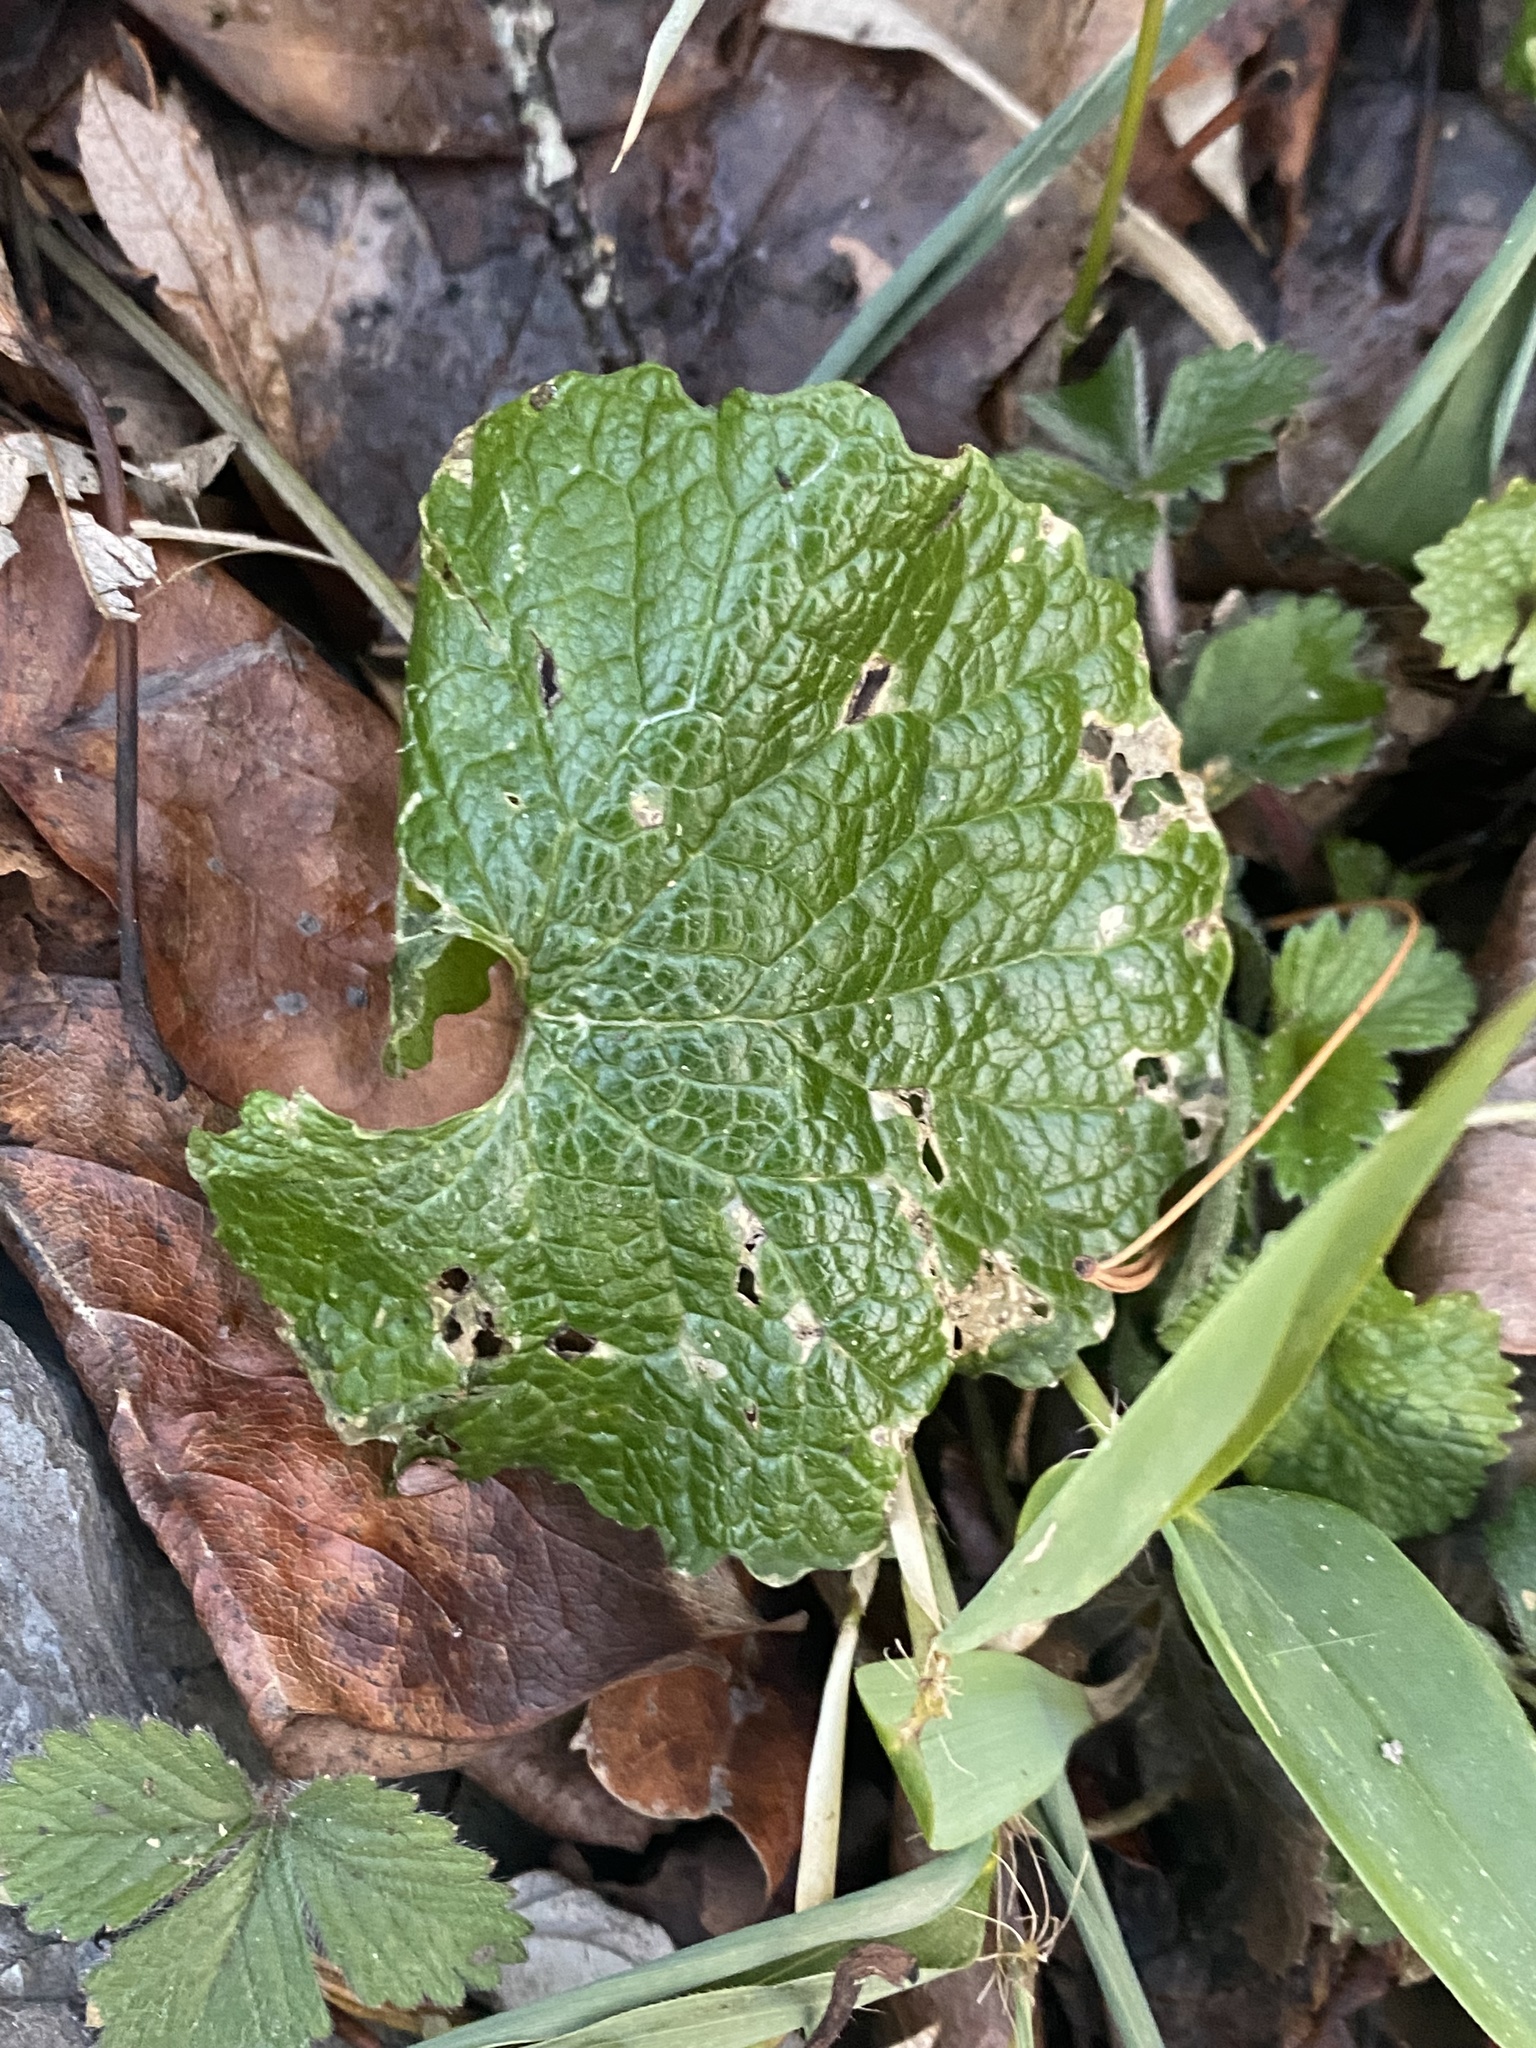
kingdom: Plantae
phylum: Tracheophyta
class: Magnoliopsida
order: Brassicales
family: Brassicaceae
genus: Alliaria
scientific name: Alliaria petiolata
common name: Garlic mustard
